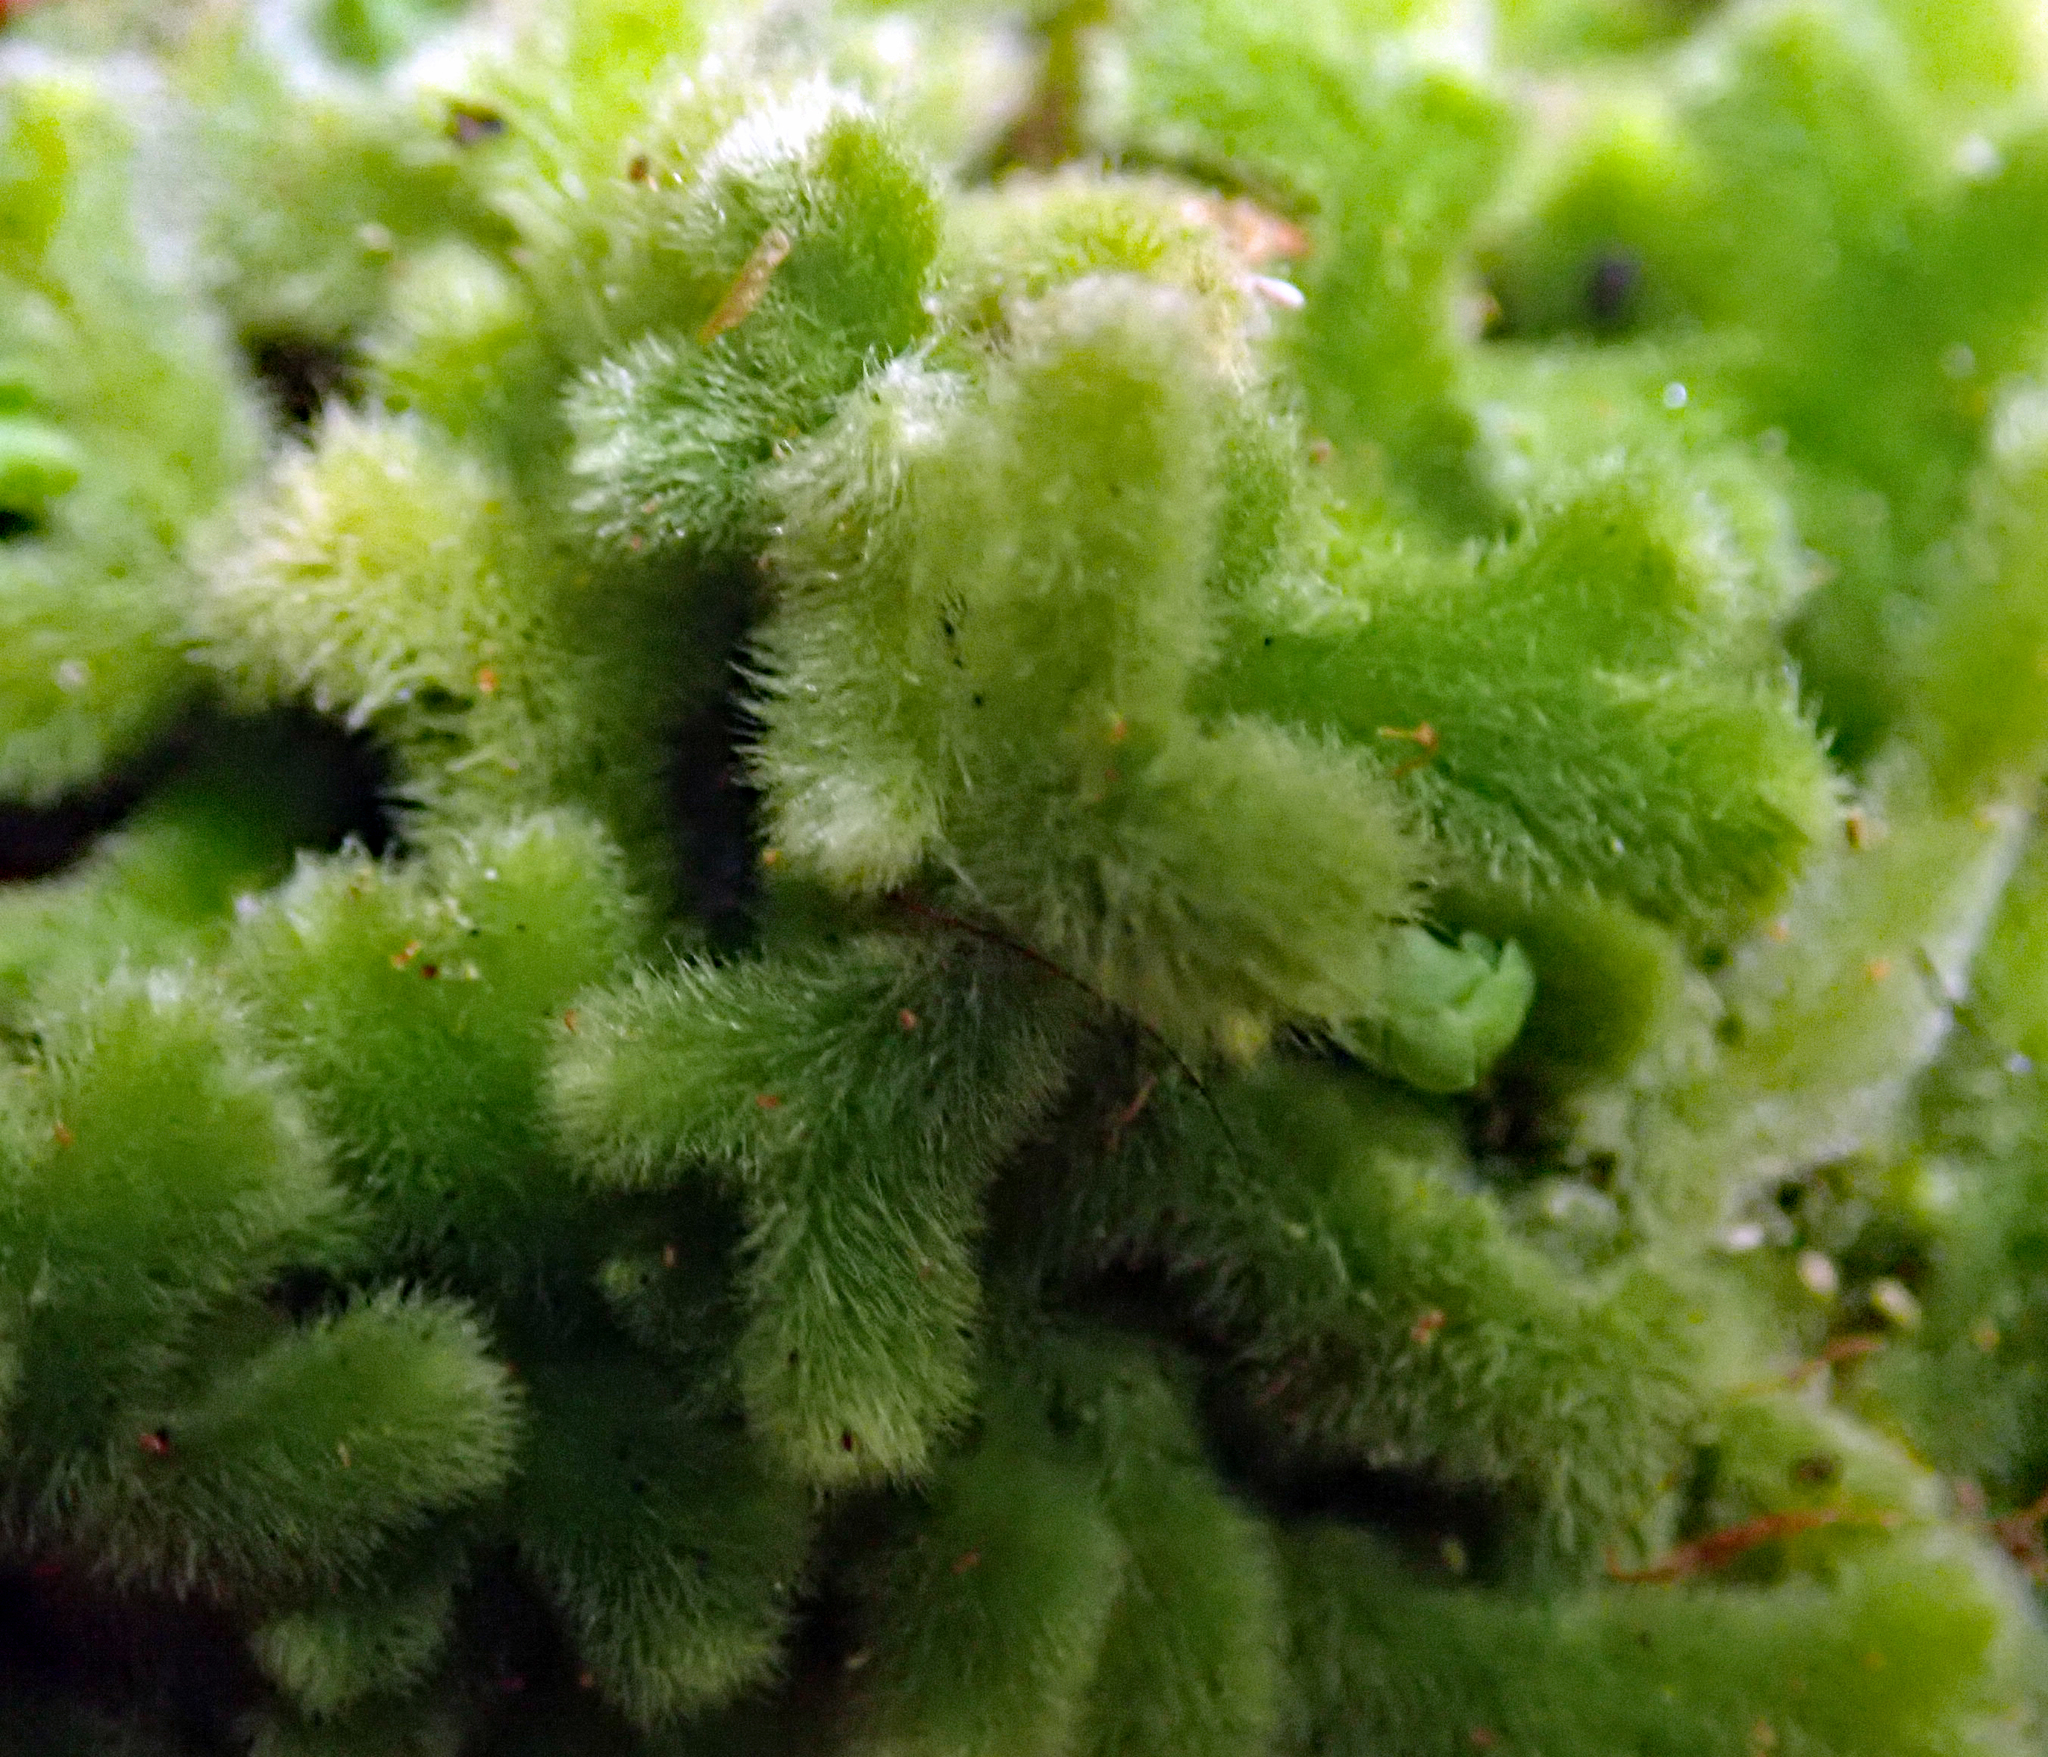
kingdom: Plantae
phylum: Marchantiophyta
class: Jungermanniopsida
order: Jungermanniales
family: Trichocoleaceae
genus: Leiomitra
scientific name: Leiomitra lanata
